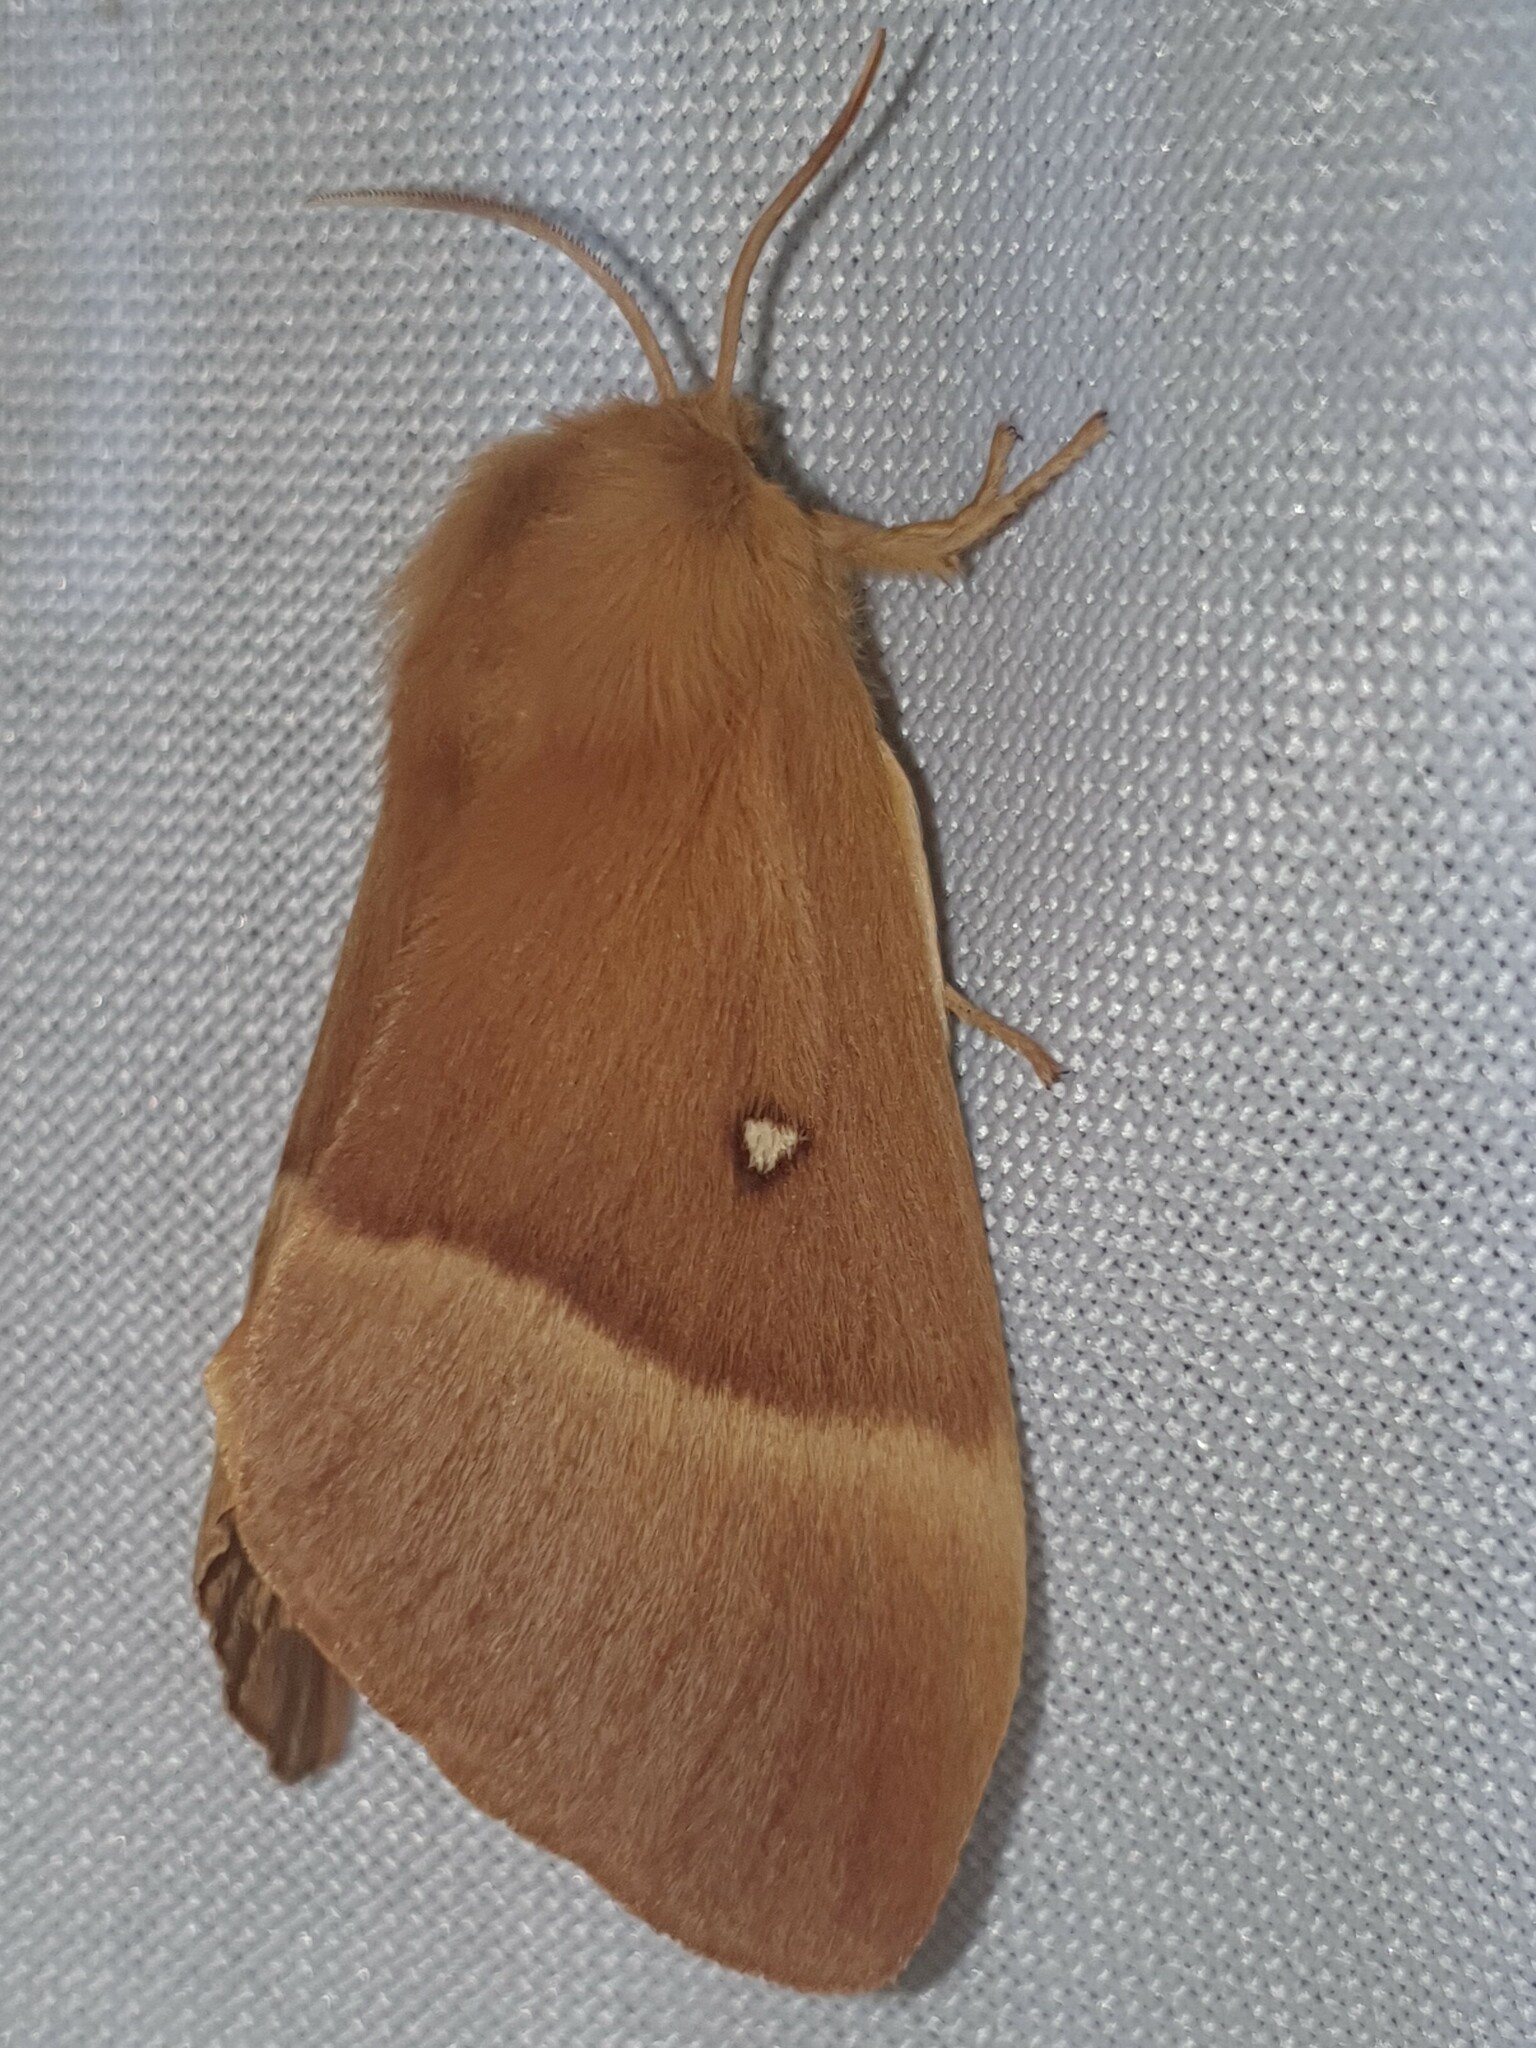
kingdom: Animalia
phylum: Arthropoda
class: Insecta
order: Lepidoptera
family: Lasiocampidae
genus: Lasiocampa
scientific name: Lasiocampa quercus
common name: Oak eggar
